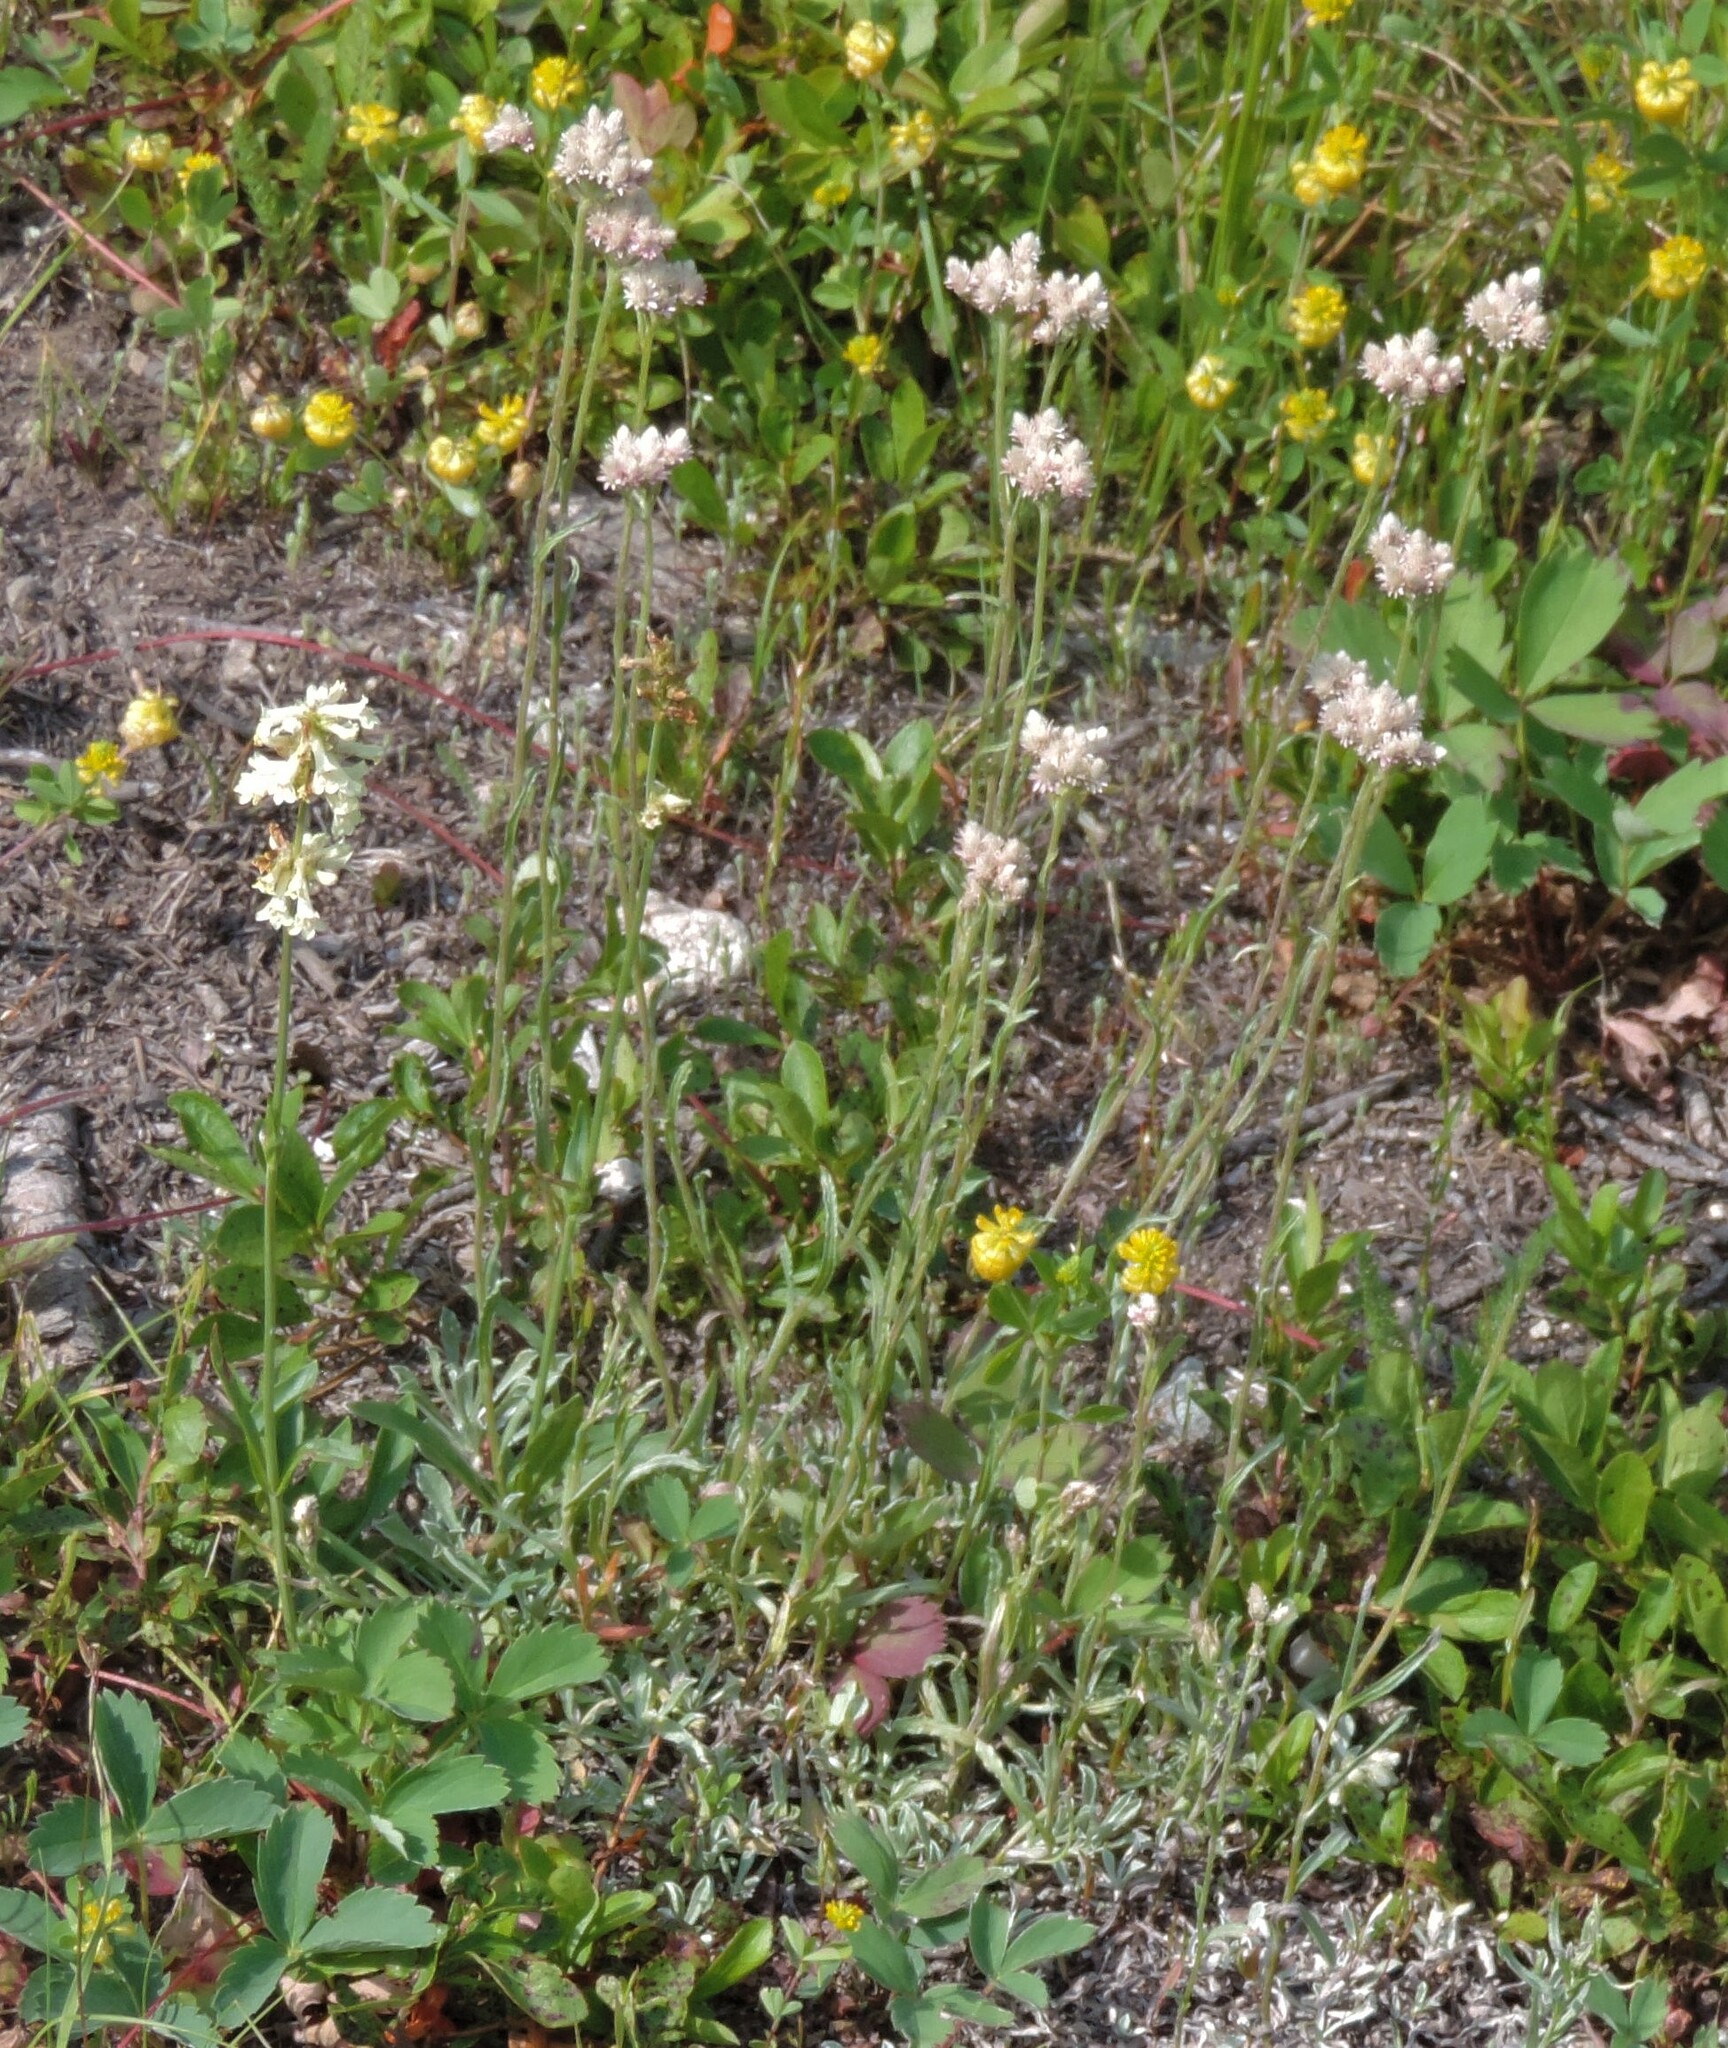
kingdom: Plantae
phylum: Tracheophyta
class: Magnoliopsida
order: Asterales
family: Asteraceae
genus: Antennaria
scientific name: Antennaria rosea
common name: Rosy pussytoes
